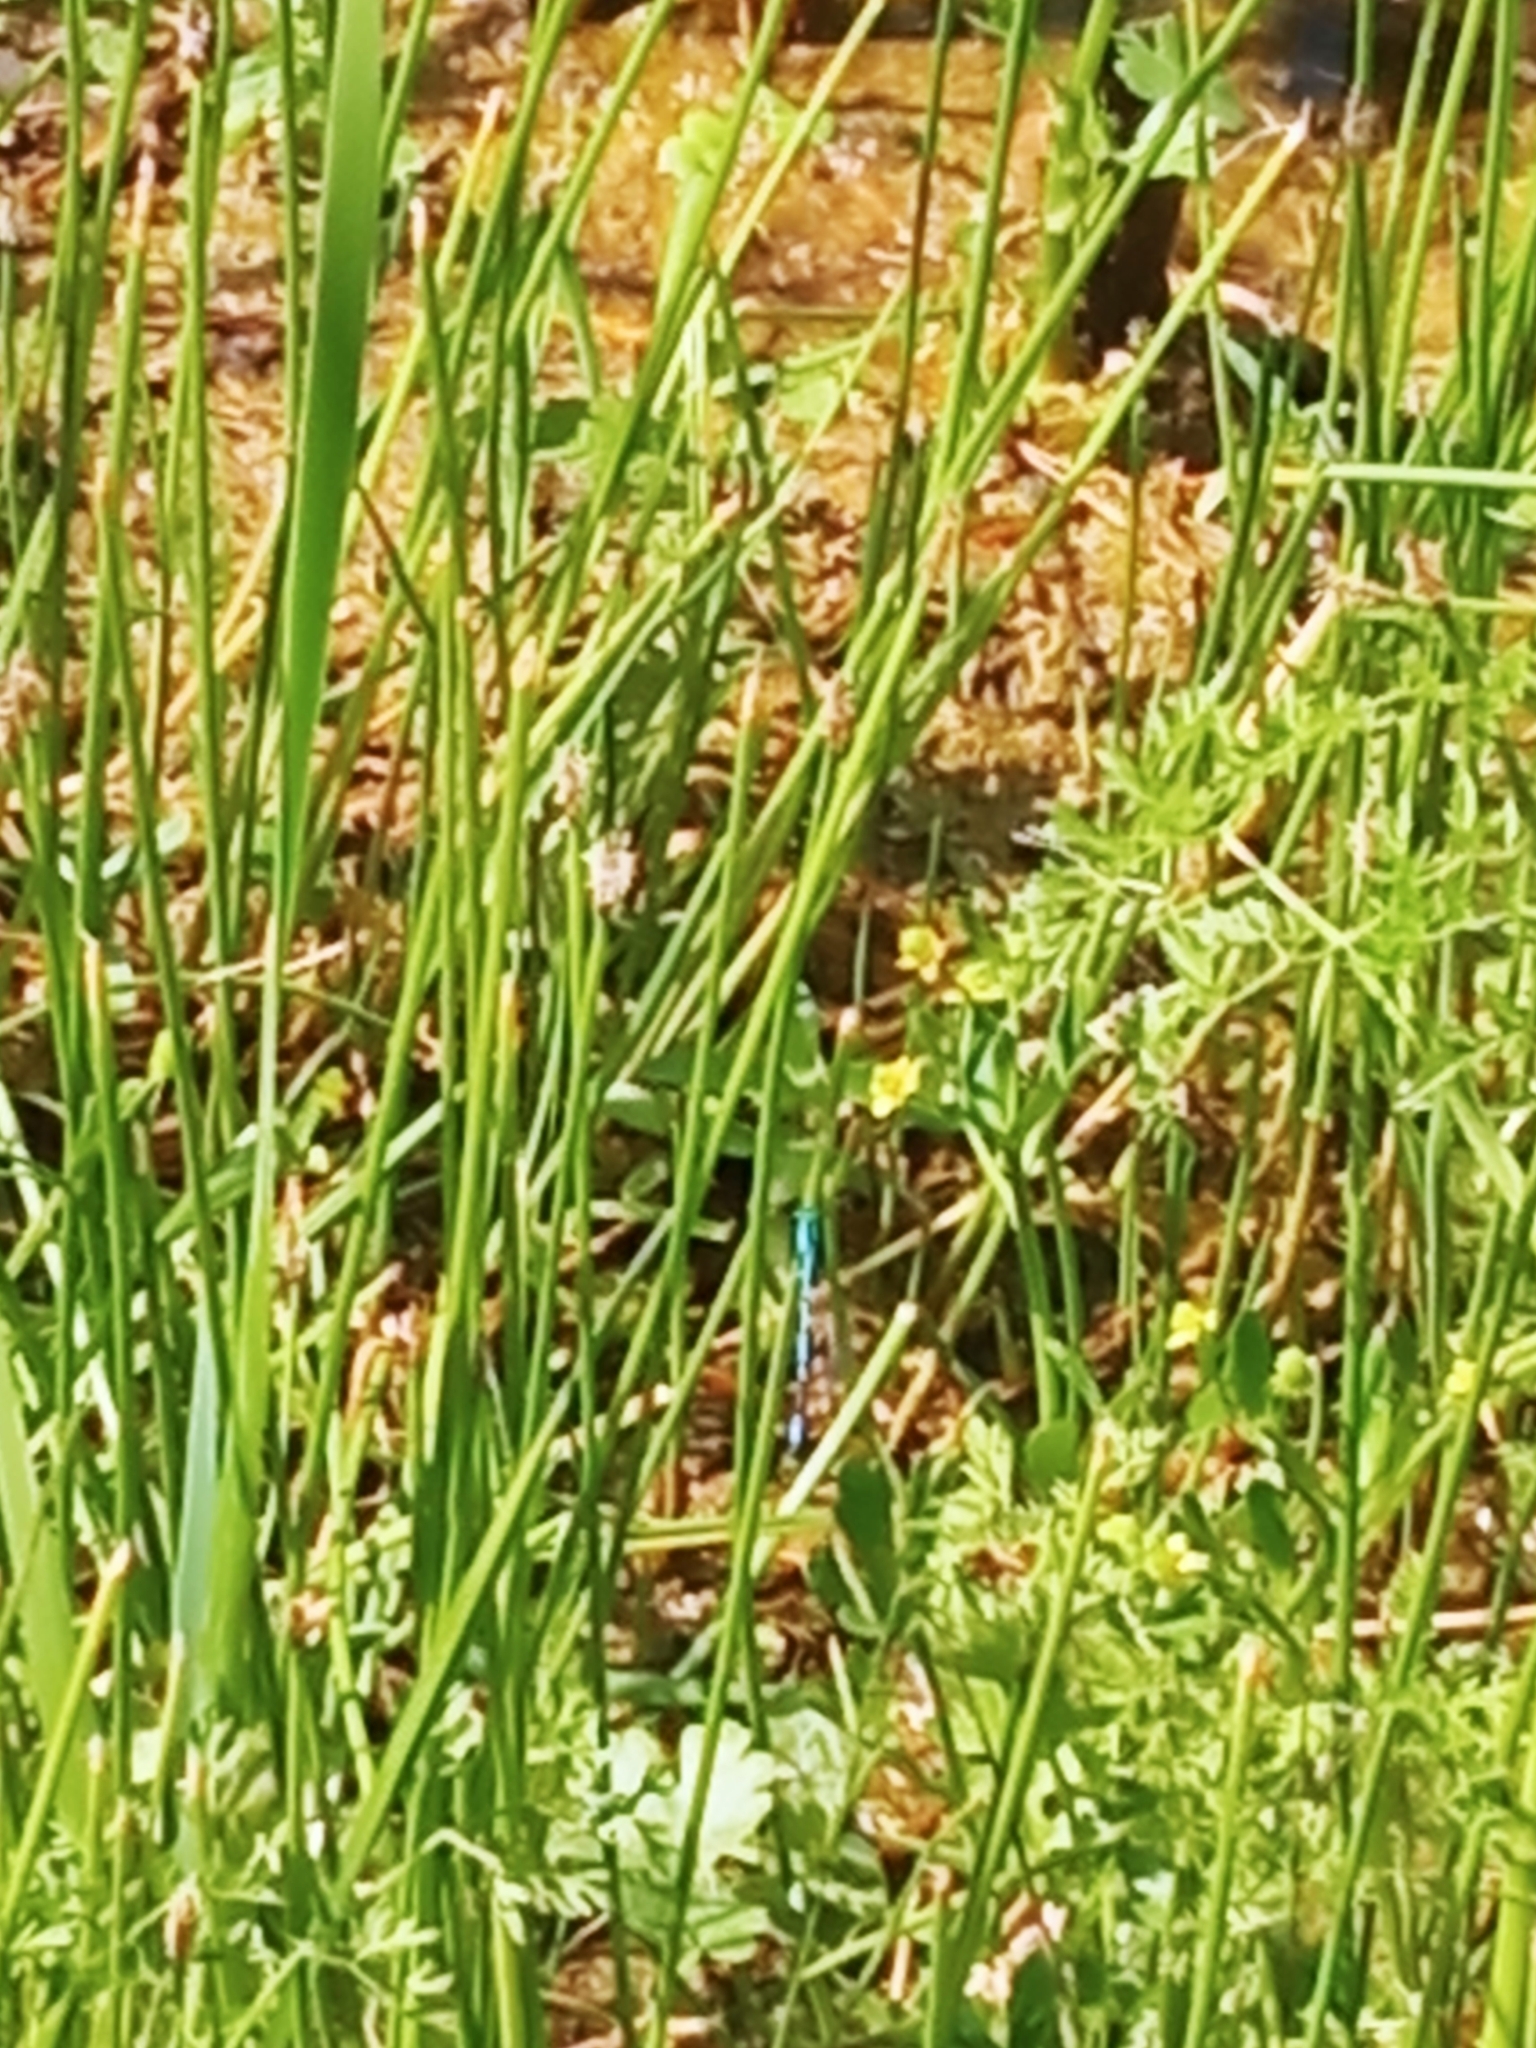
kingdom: Animalia
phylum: Arthropoda
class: Insecta
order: Odonata
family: Coenagrionidae
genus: Erythromma
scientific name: Erythromma najas
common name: Red-eyed damselfly
